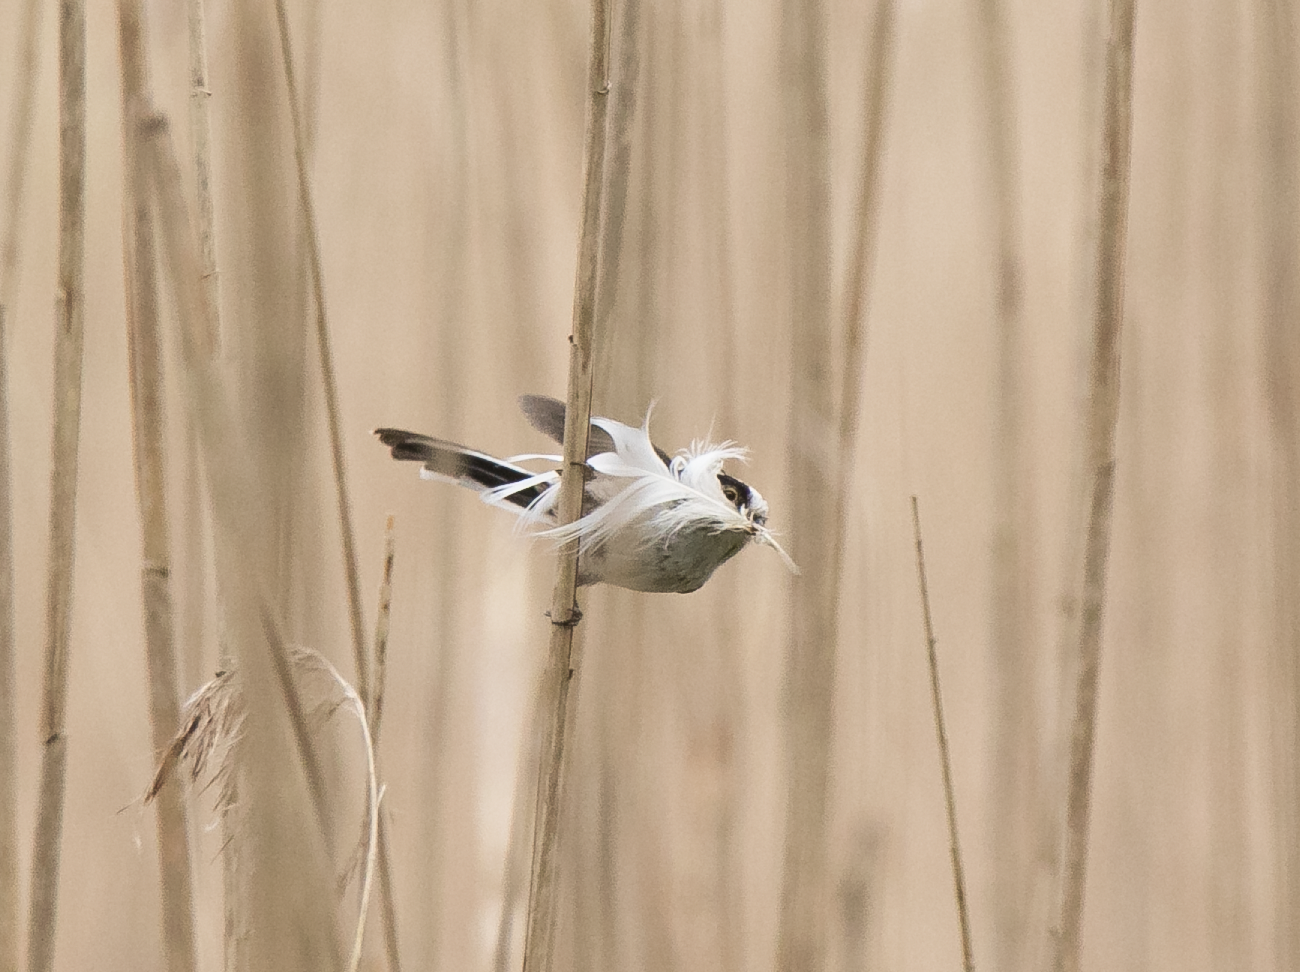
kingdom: Animalia
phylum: Chordata
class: Aves
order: Passeriformes
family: Aegithalidae
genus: Aegithalos
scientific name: Aegithalos caudatus
